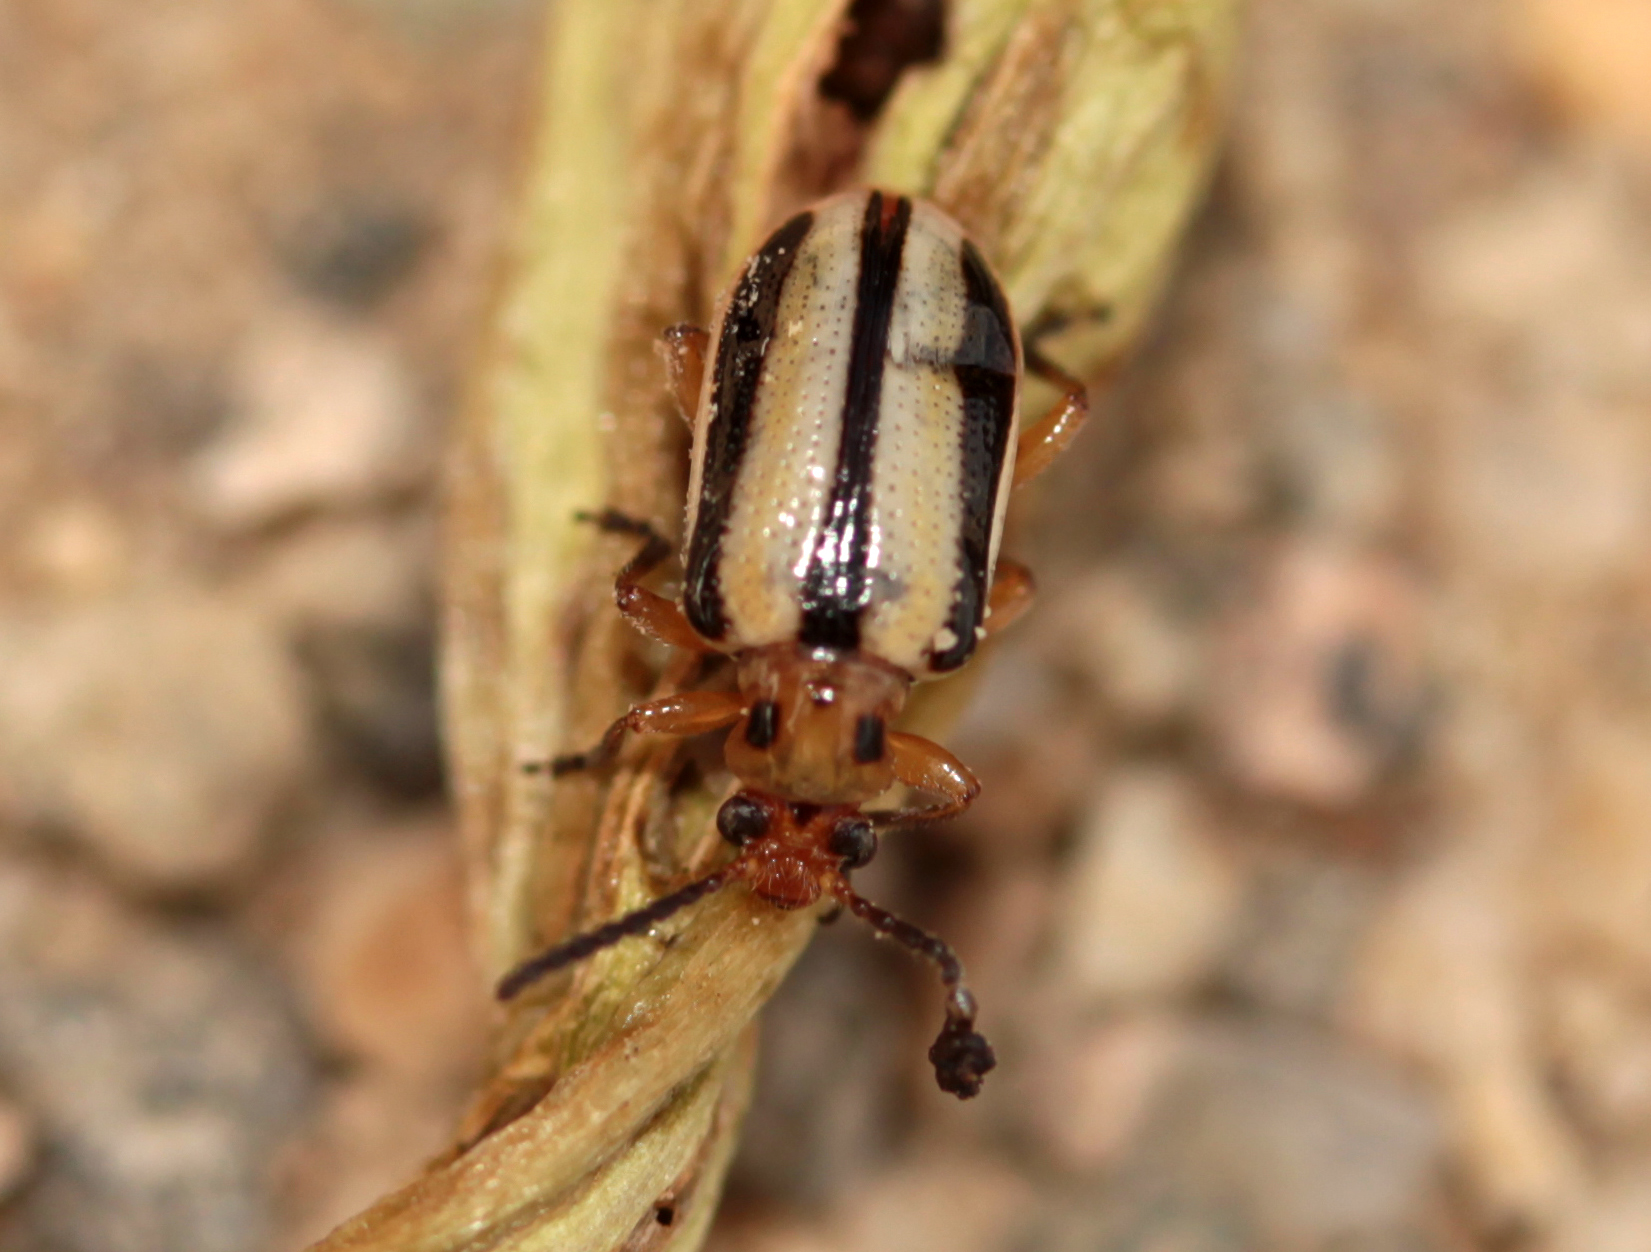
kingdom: Animalia
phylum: Arthropoda
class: Insecta
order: Coleoptera
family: Chrysomelidae
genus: Lema
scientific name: Lema daturaphila
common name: Leaf beetle
